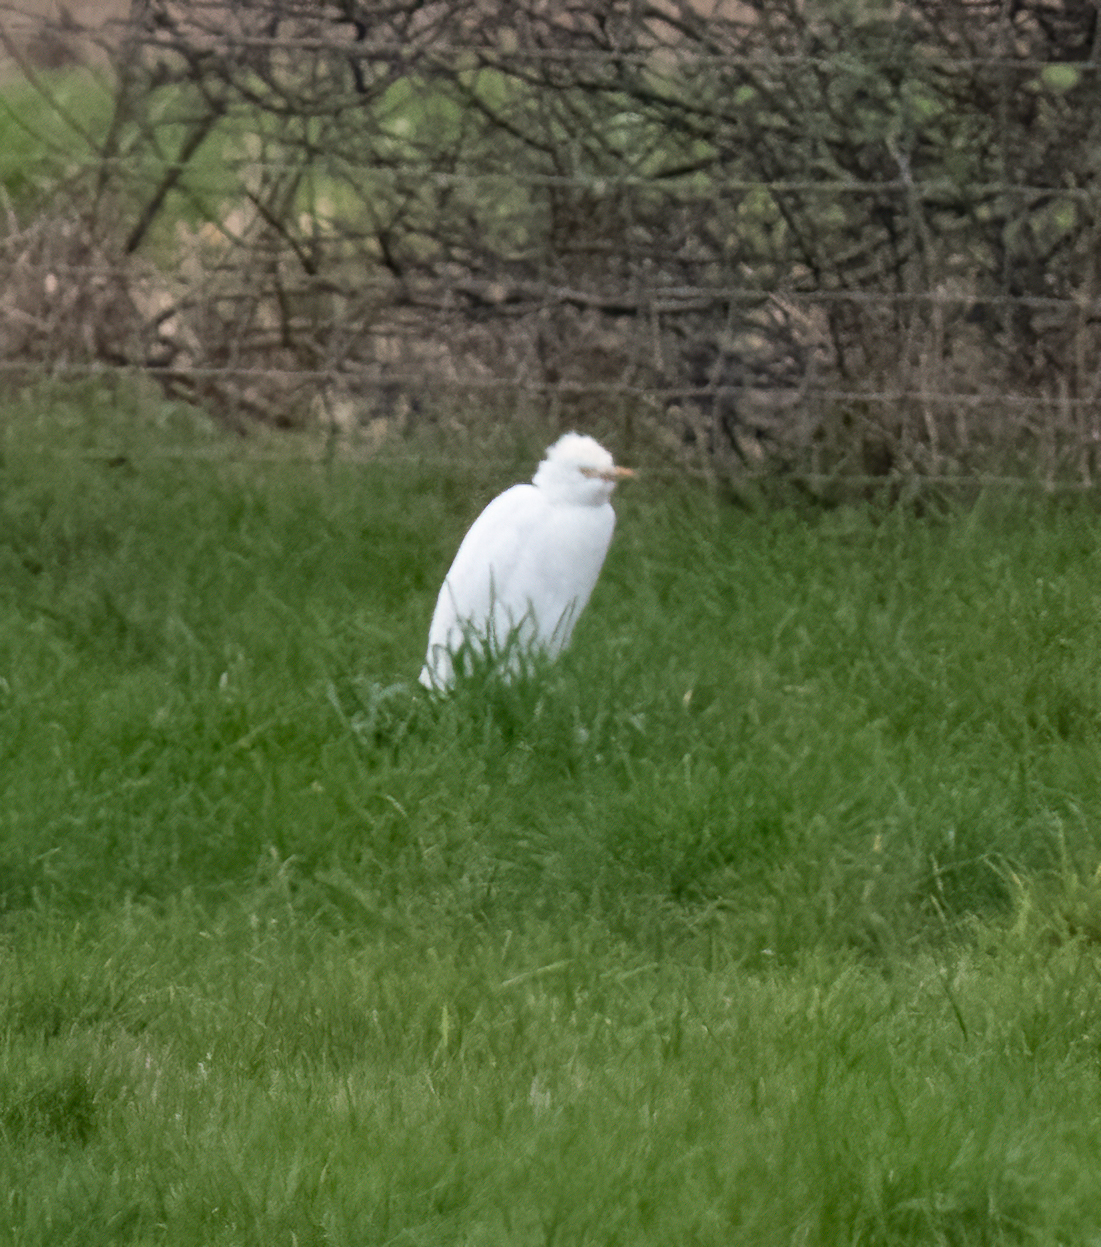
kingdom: Animalia
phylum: Chordata
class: Aves
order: Pelecaniformes
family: Ardeidae
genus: Bubulcus
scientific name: Bubulcus ibis
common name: Cattle egret
